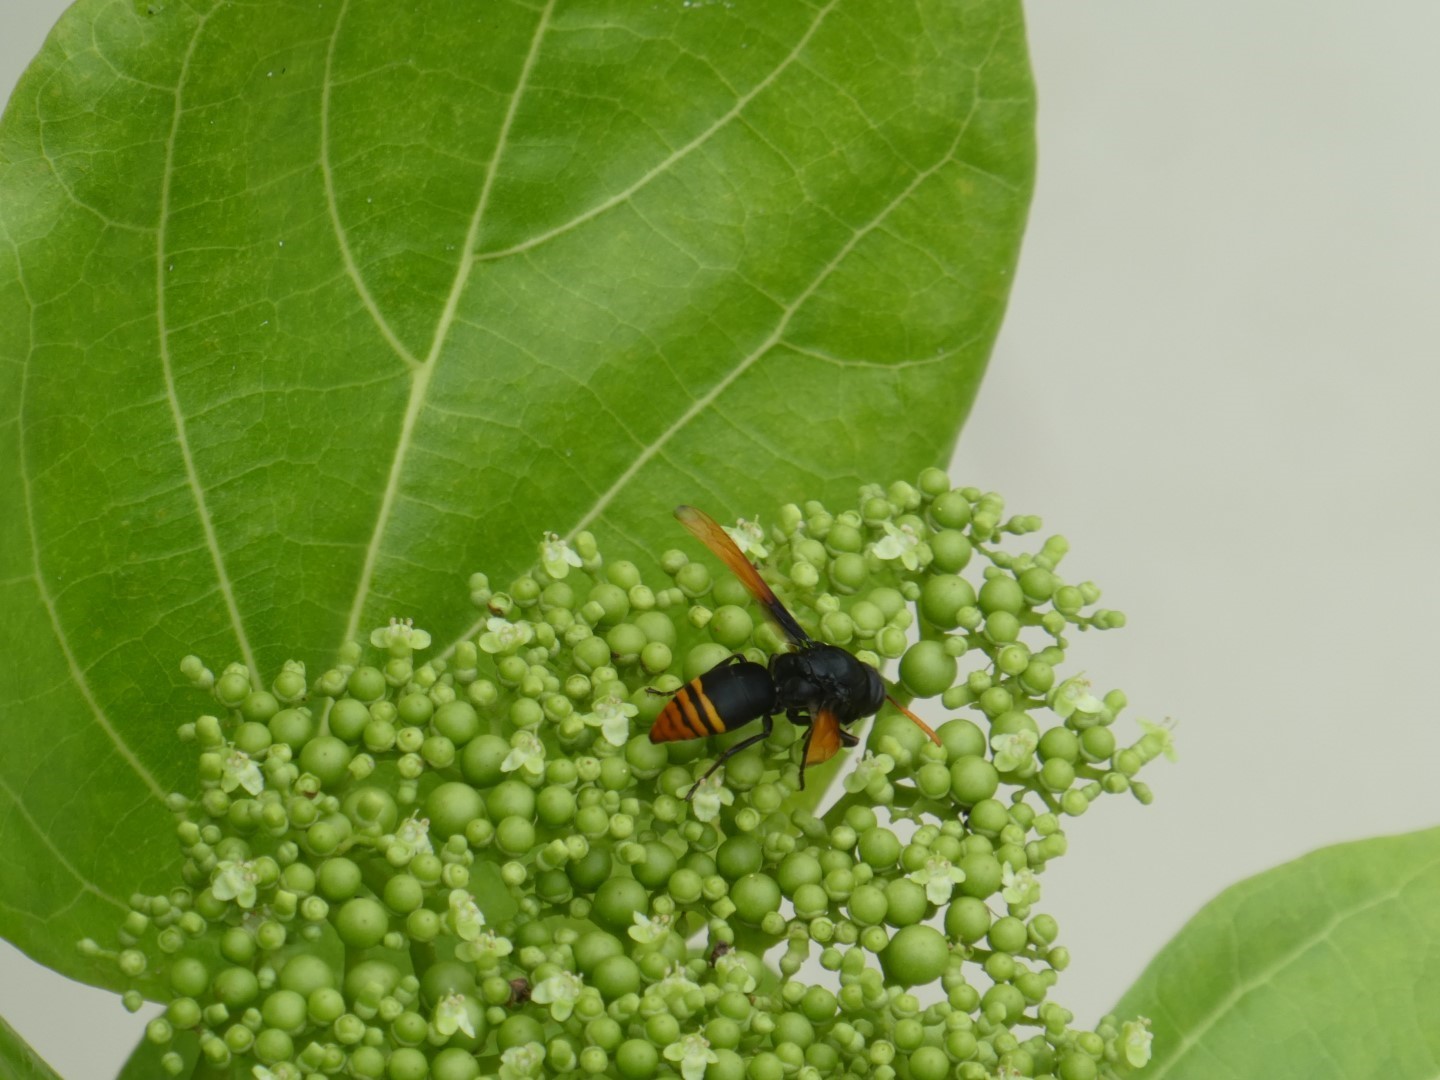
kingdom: Animalia
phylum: Arthropoda
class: Insecta
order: Hymenoptera
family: Eumenidae
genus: Rhynchium
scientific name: Rhynchium medium
